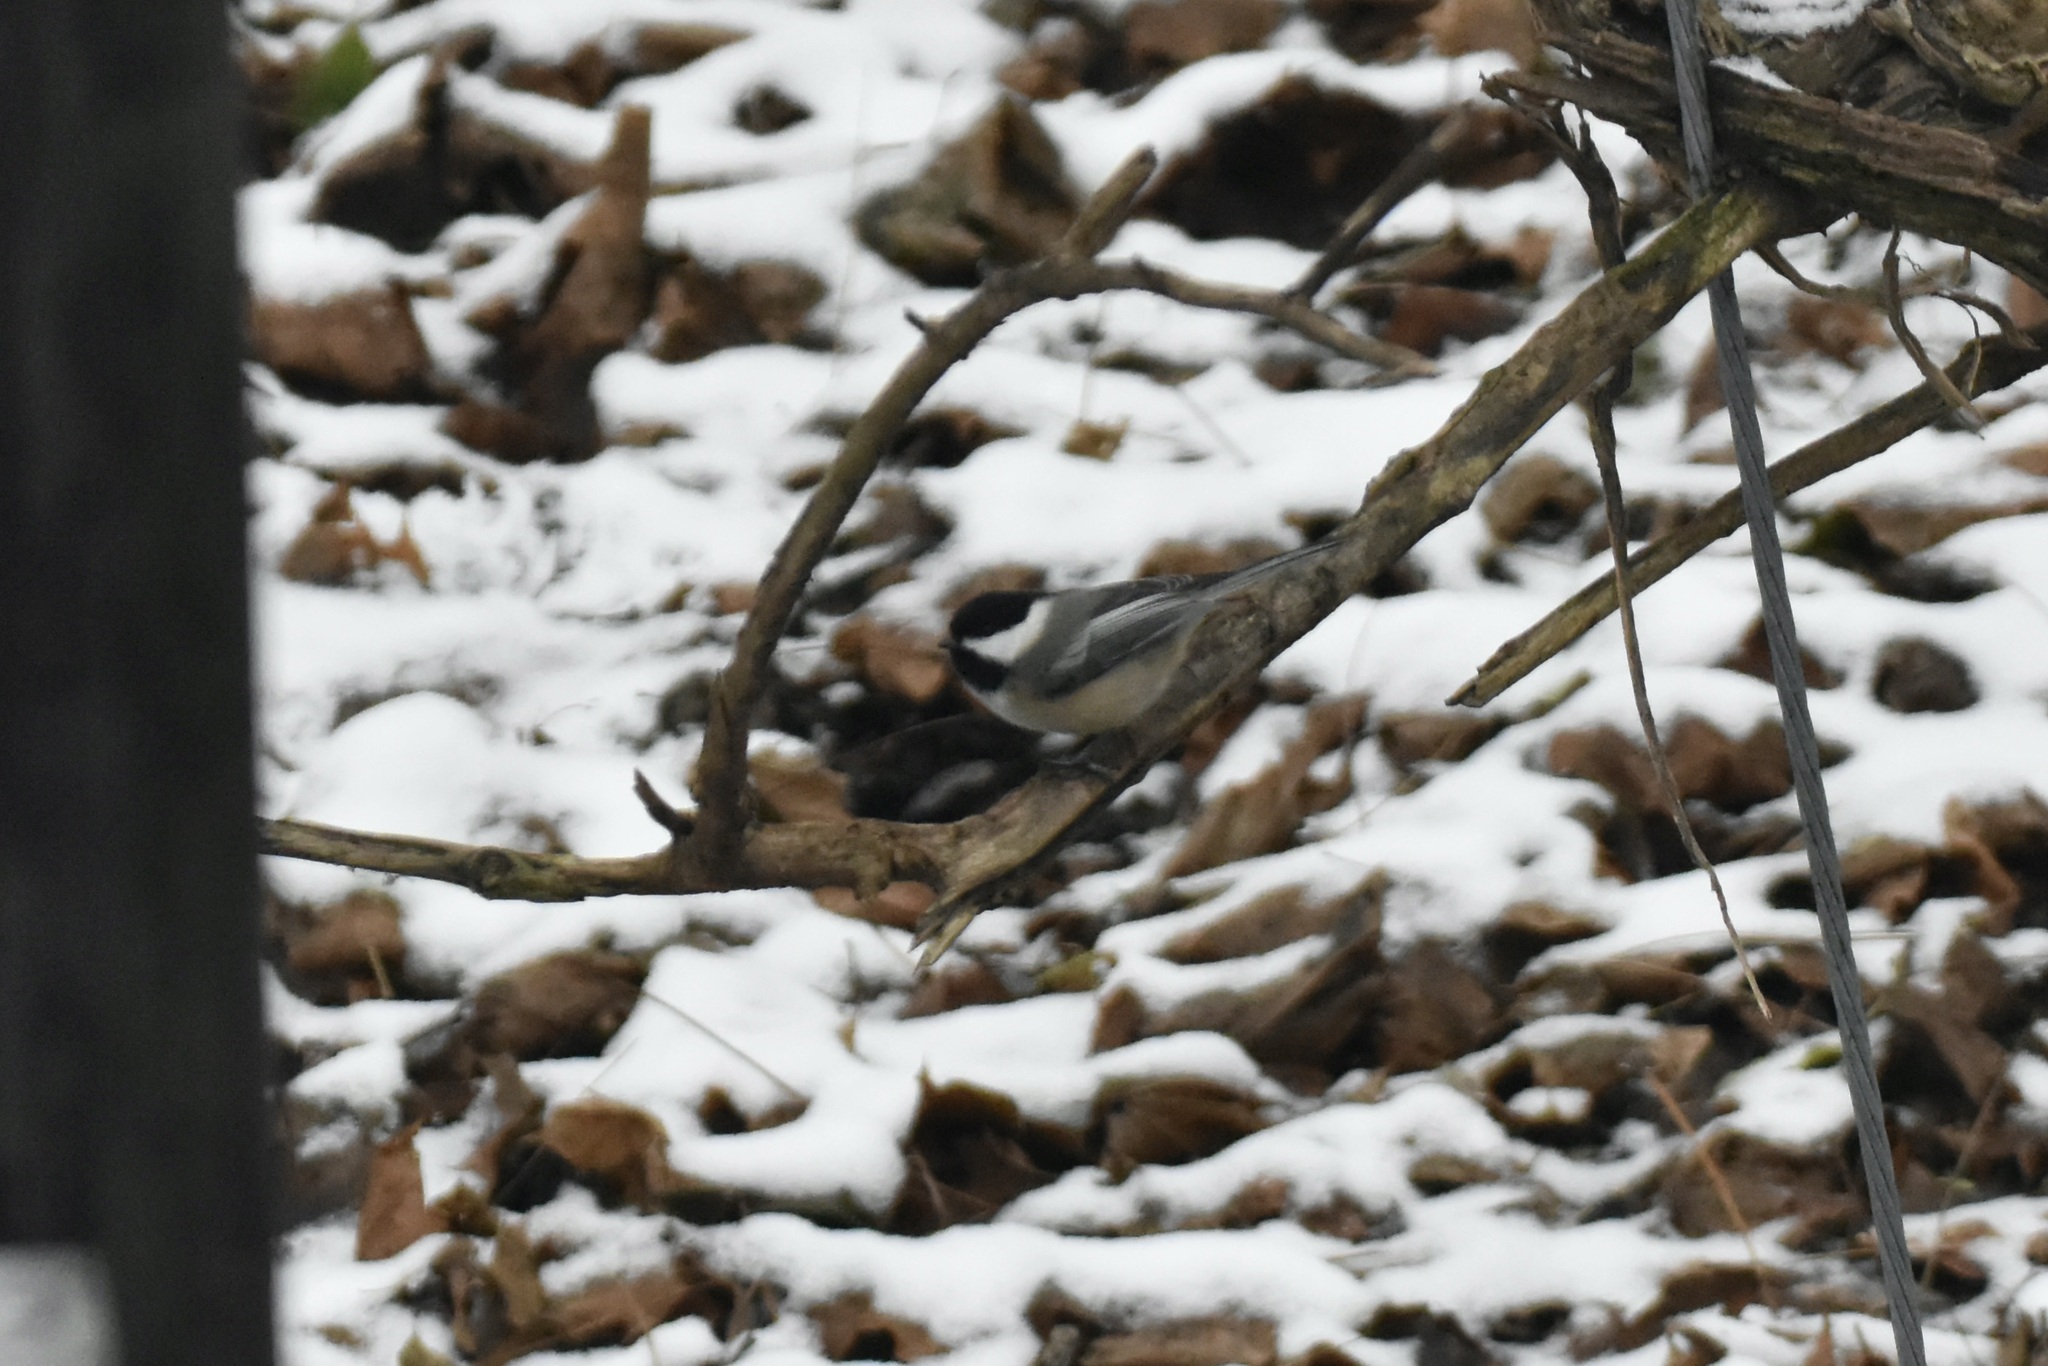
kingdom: Animalia
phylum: Chordata
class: Aves
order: Passeriformes
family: Paridae
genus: Poecile
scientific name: Poecile atricapillus
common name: Black-capped chickadee
